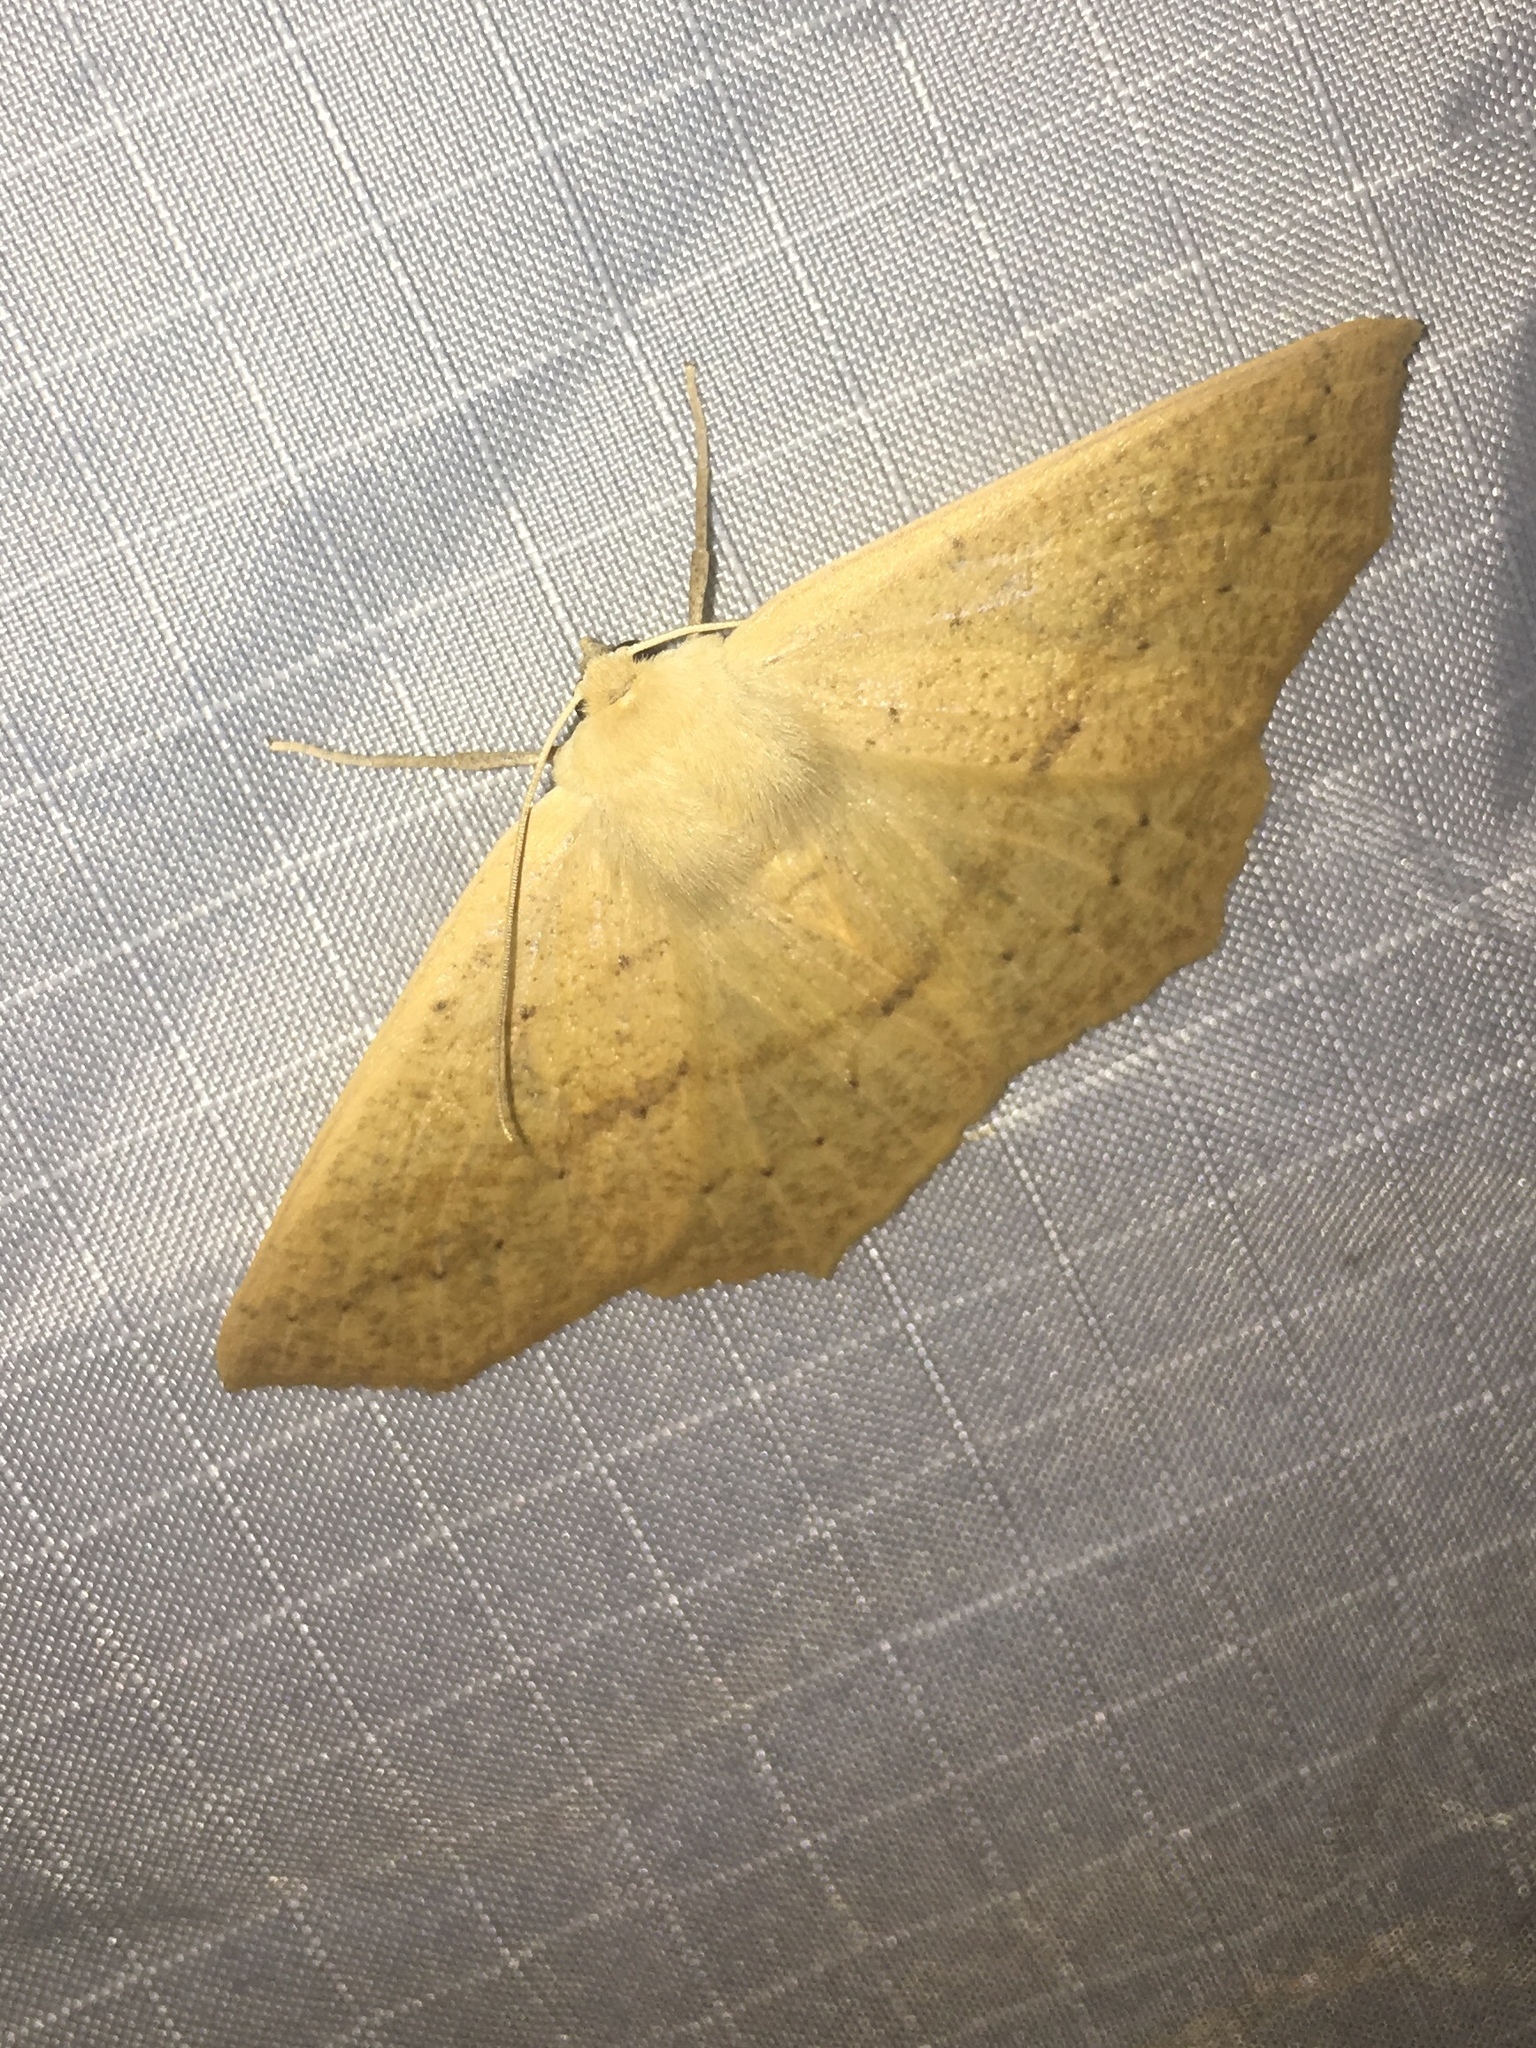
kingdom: Animalia
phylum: Arthropoda
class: Insecta
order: Lepidoptera
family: Geometridae
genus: Sabulodes
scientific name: Sabulodes aegrotata
